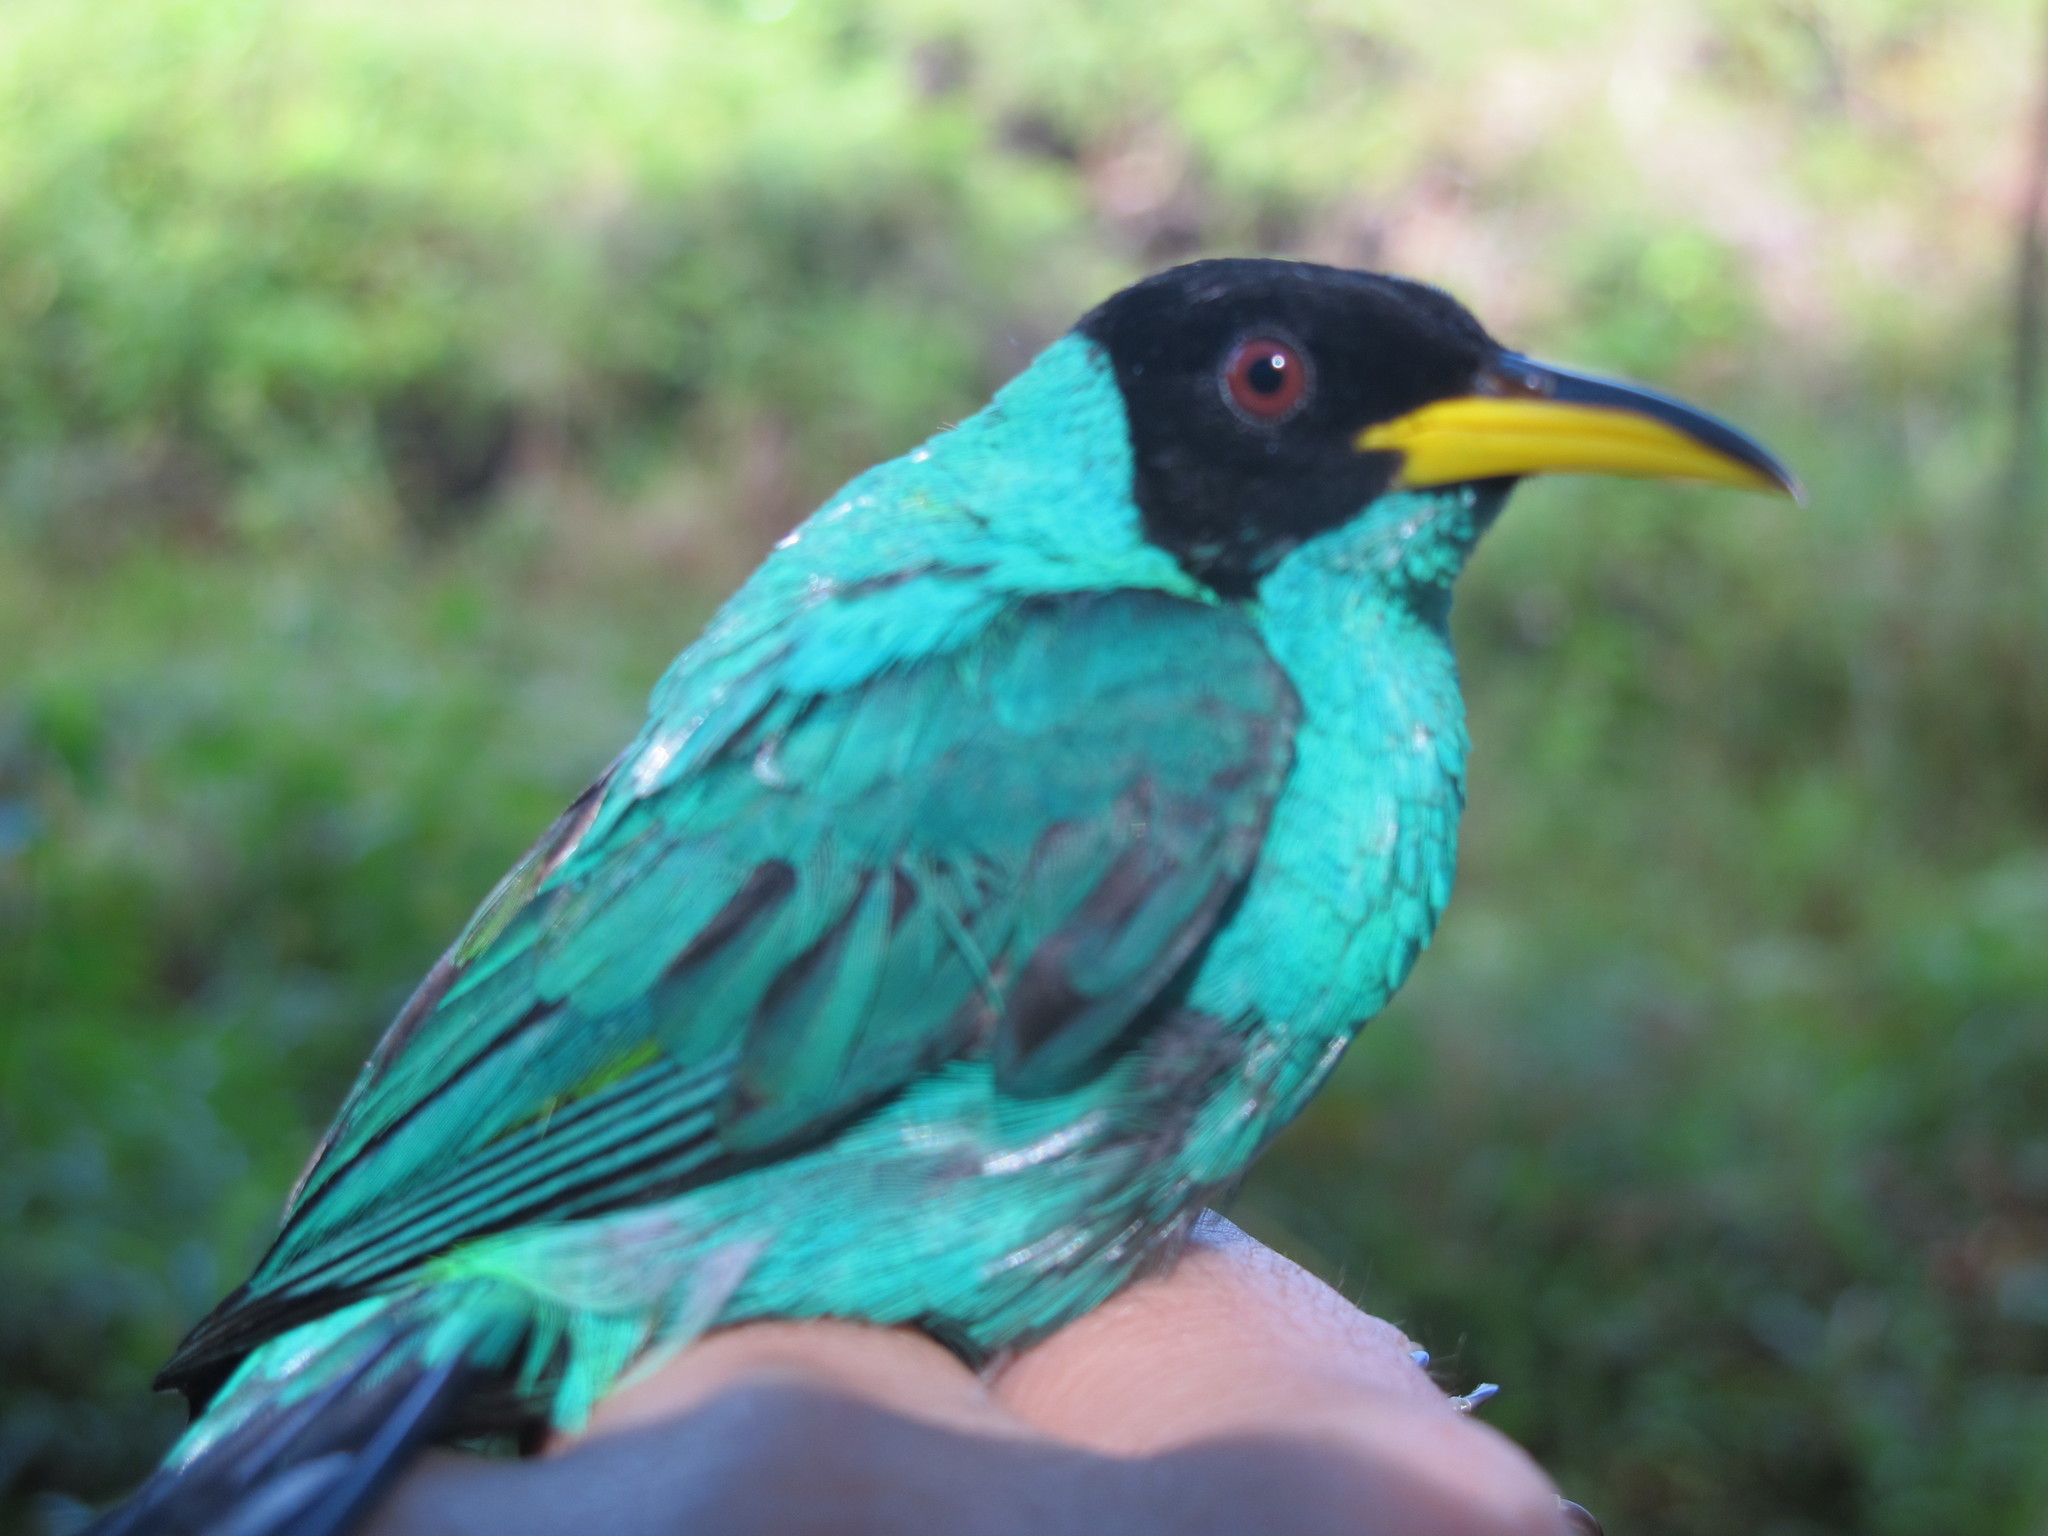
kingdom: Animalia
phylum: Chordata
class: Aves
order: Passeriformes
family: Thraupidae
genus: Chlorophanes
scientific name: Chlorophanes spiza
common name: Green honeycreeper
